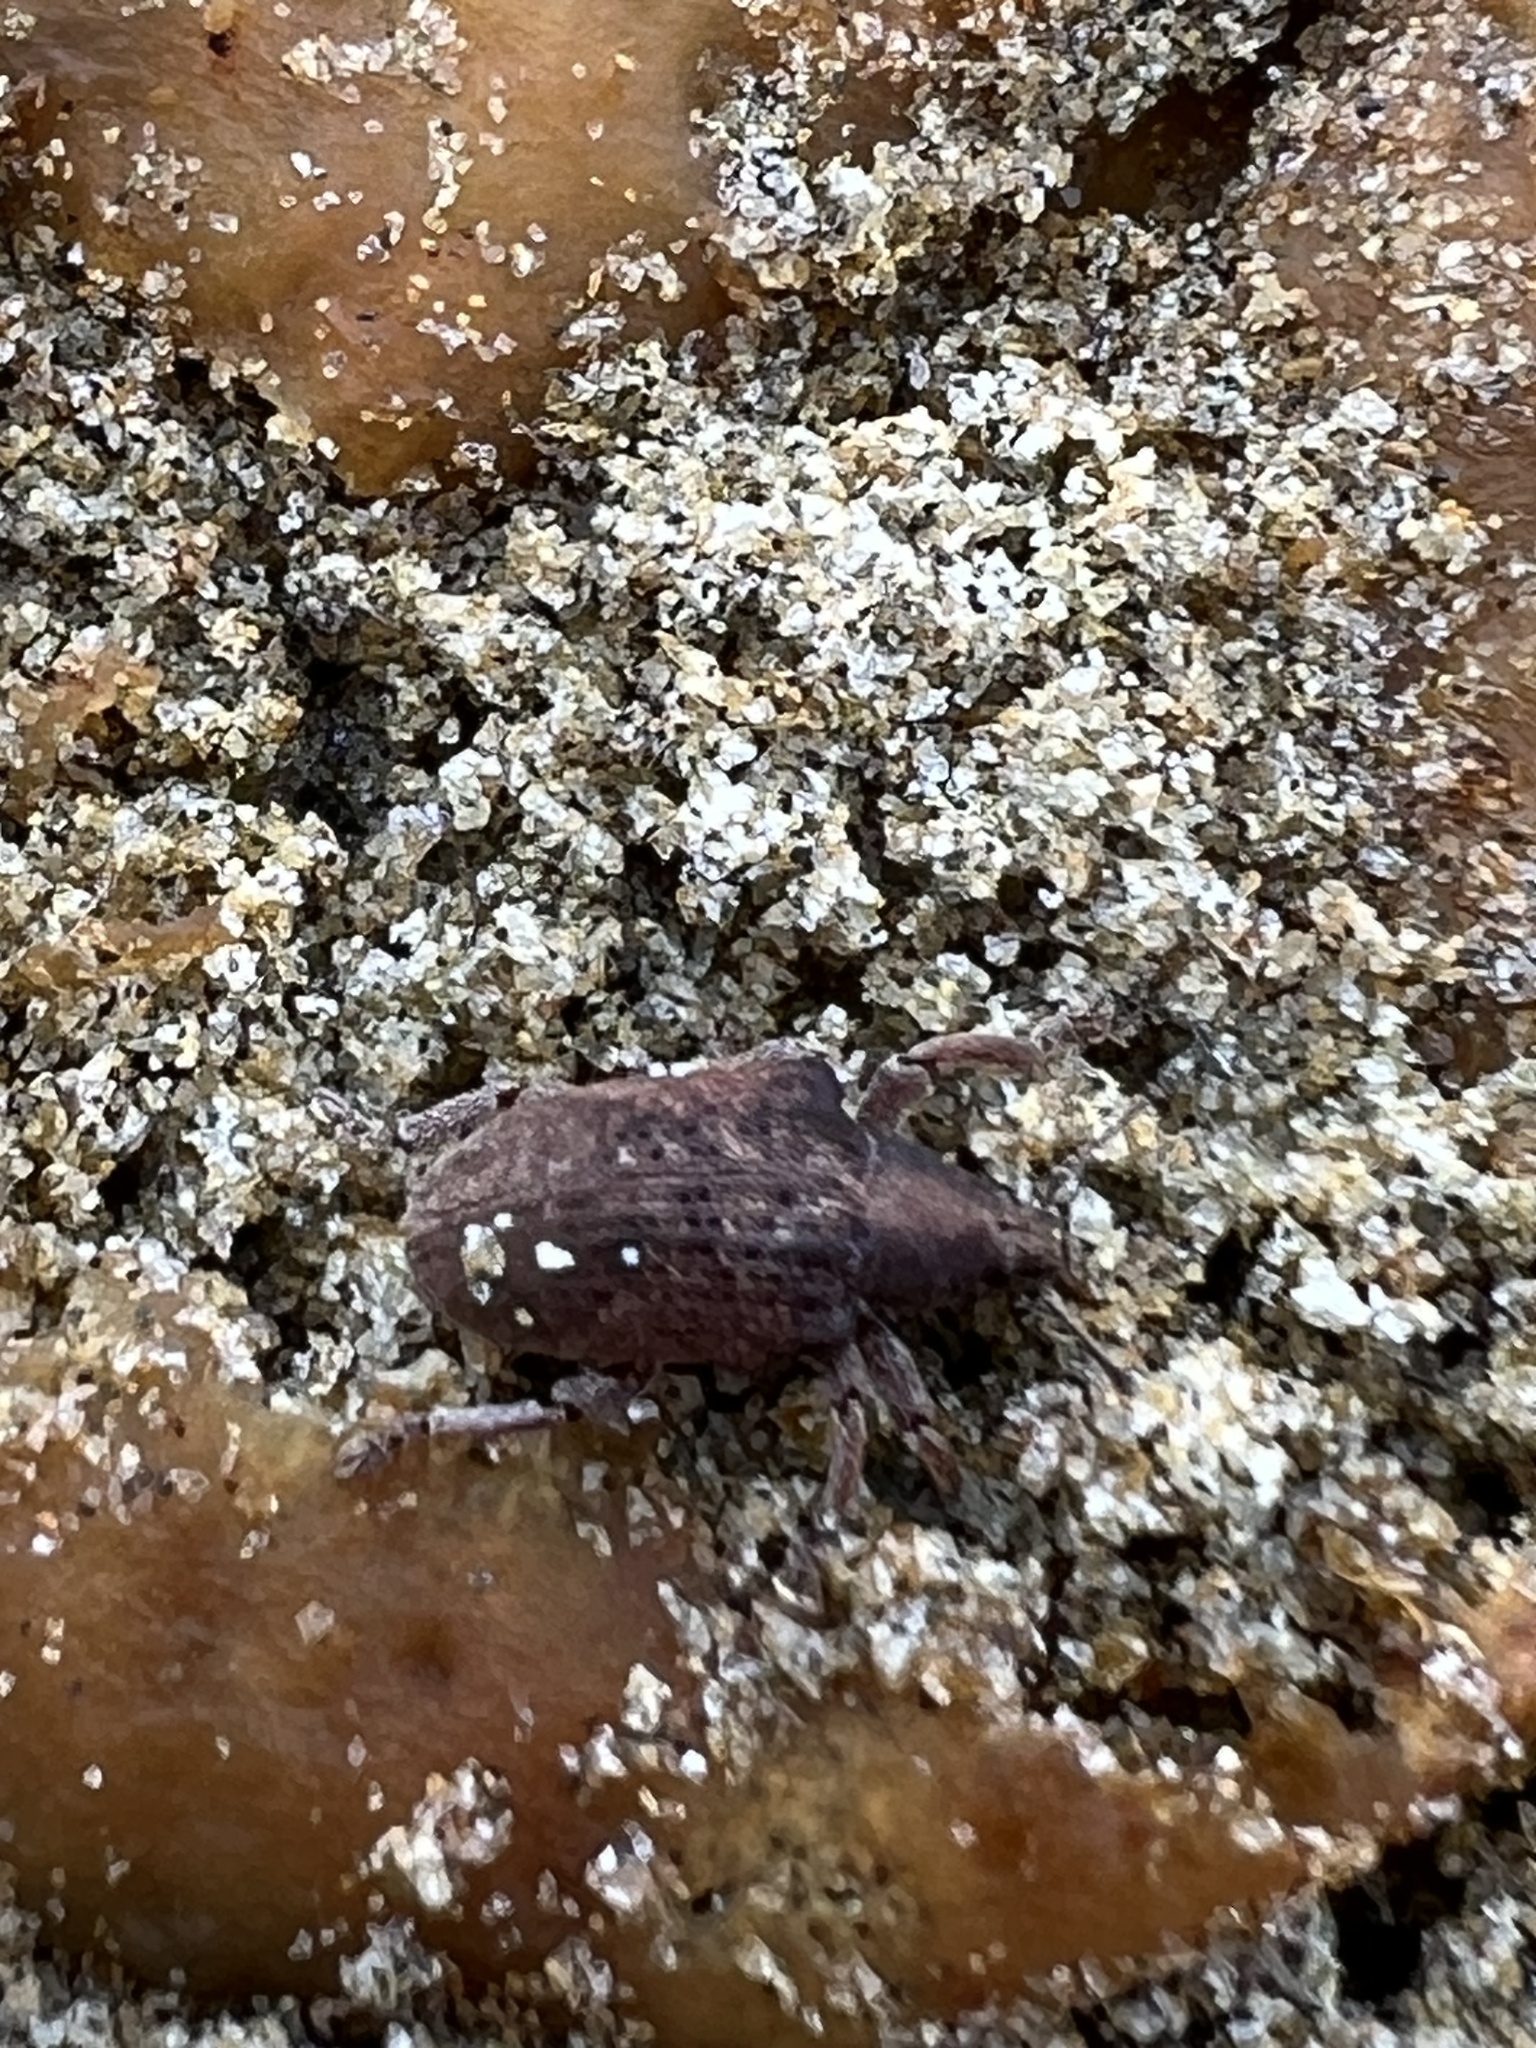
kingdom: Animalia
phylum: Arthropoda
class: Insecta
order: Coleoptera
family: Curculionidae
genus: Gonipterus
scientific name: Gonipterus platensis
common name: Eucalyptus snout beetle
